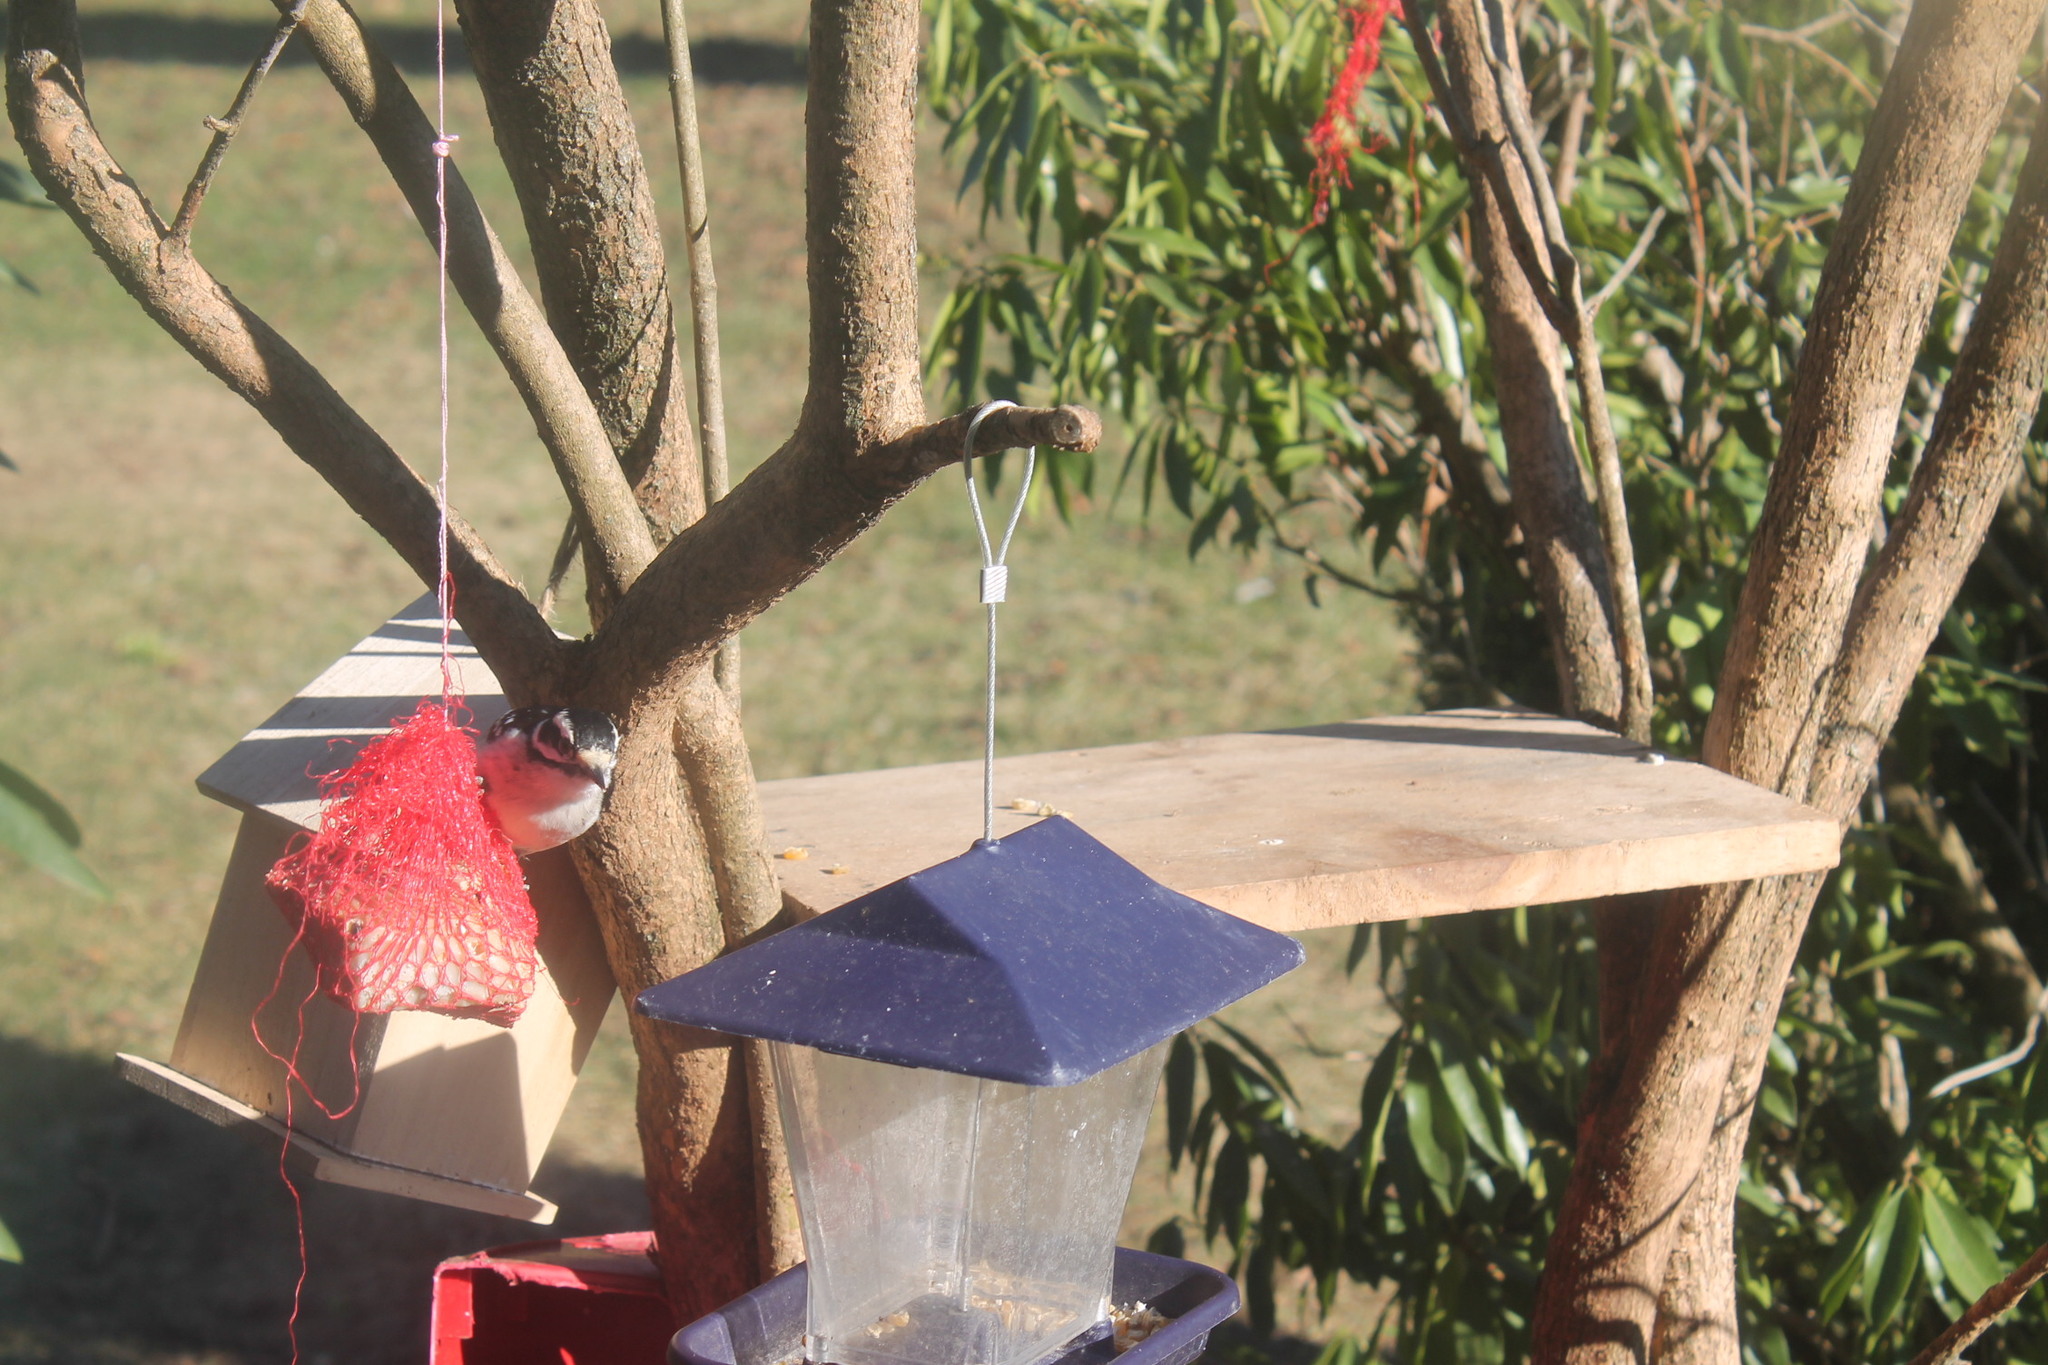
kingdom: Animalia
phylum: Chordata
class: Aves
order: Piciformes
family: Picidae
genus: Dryobates
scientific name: Dryobates pubescens
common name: Downy woodpecker
